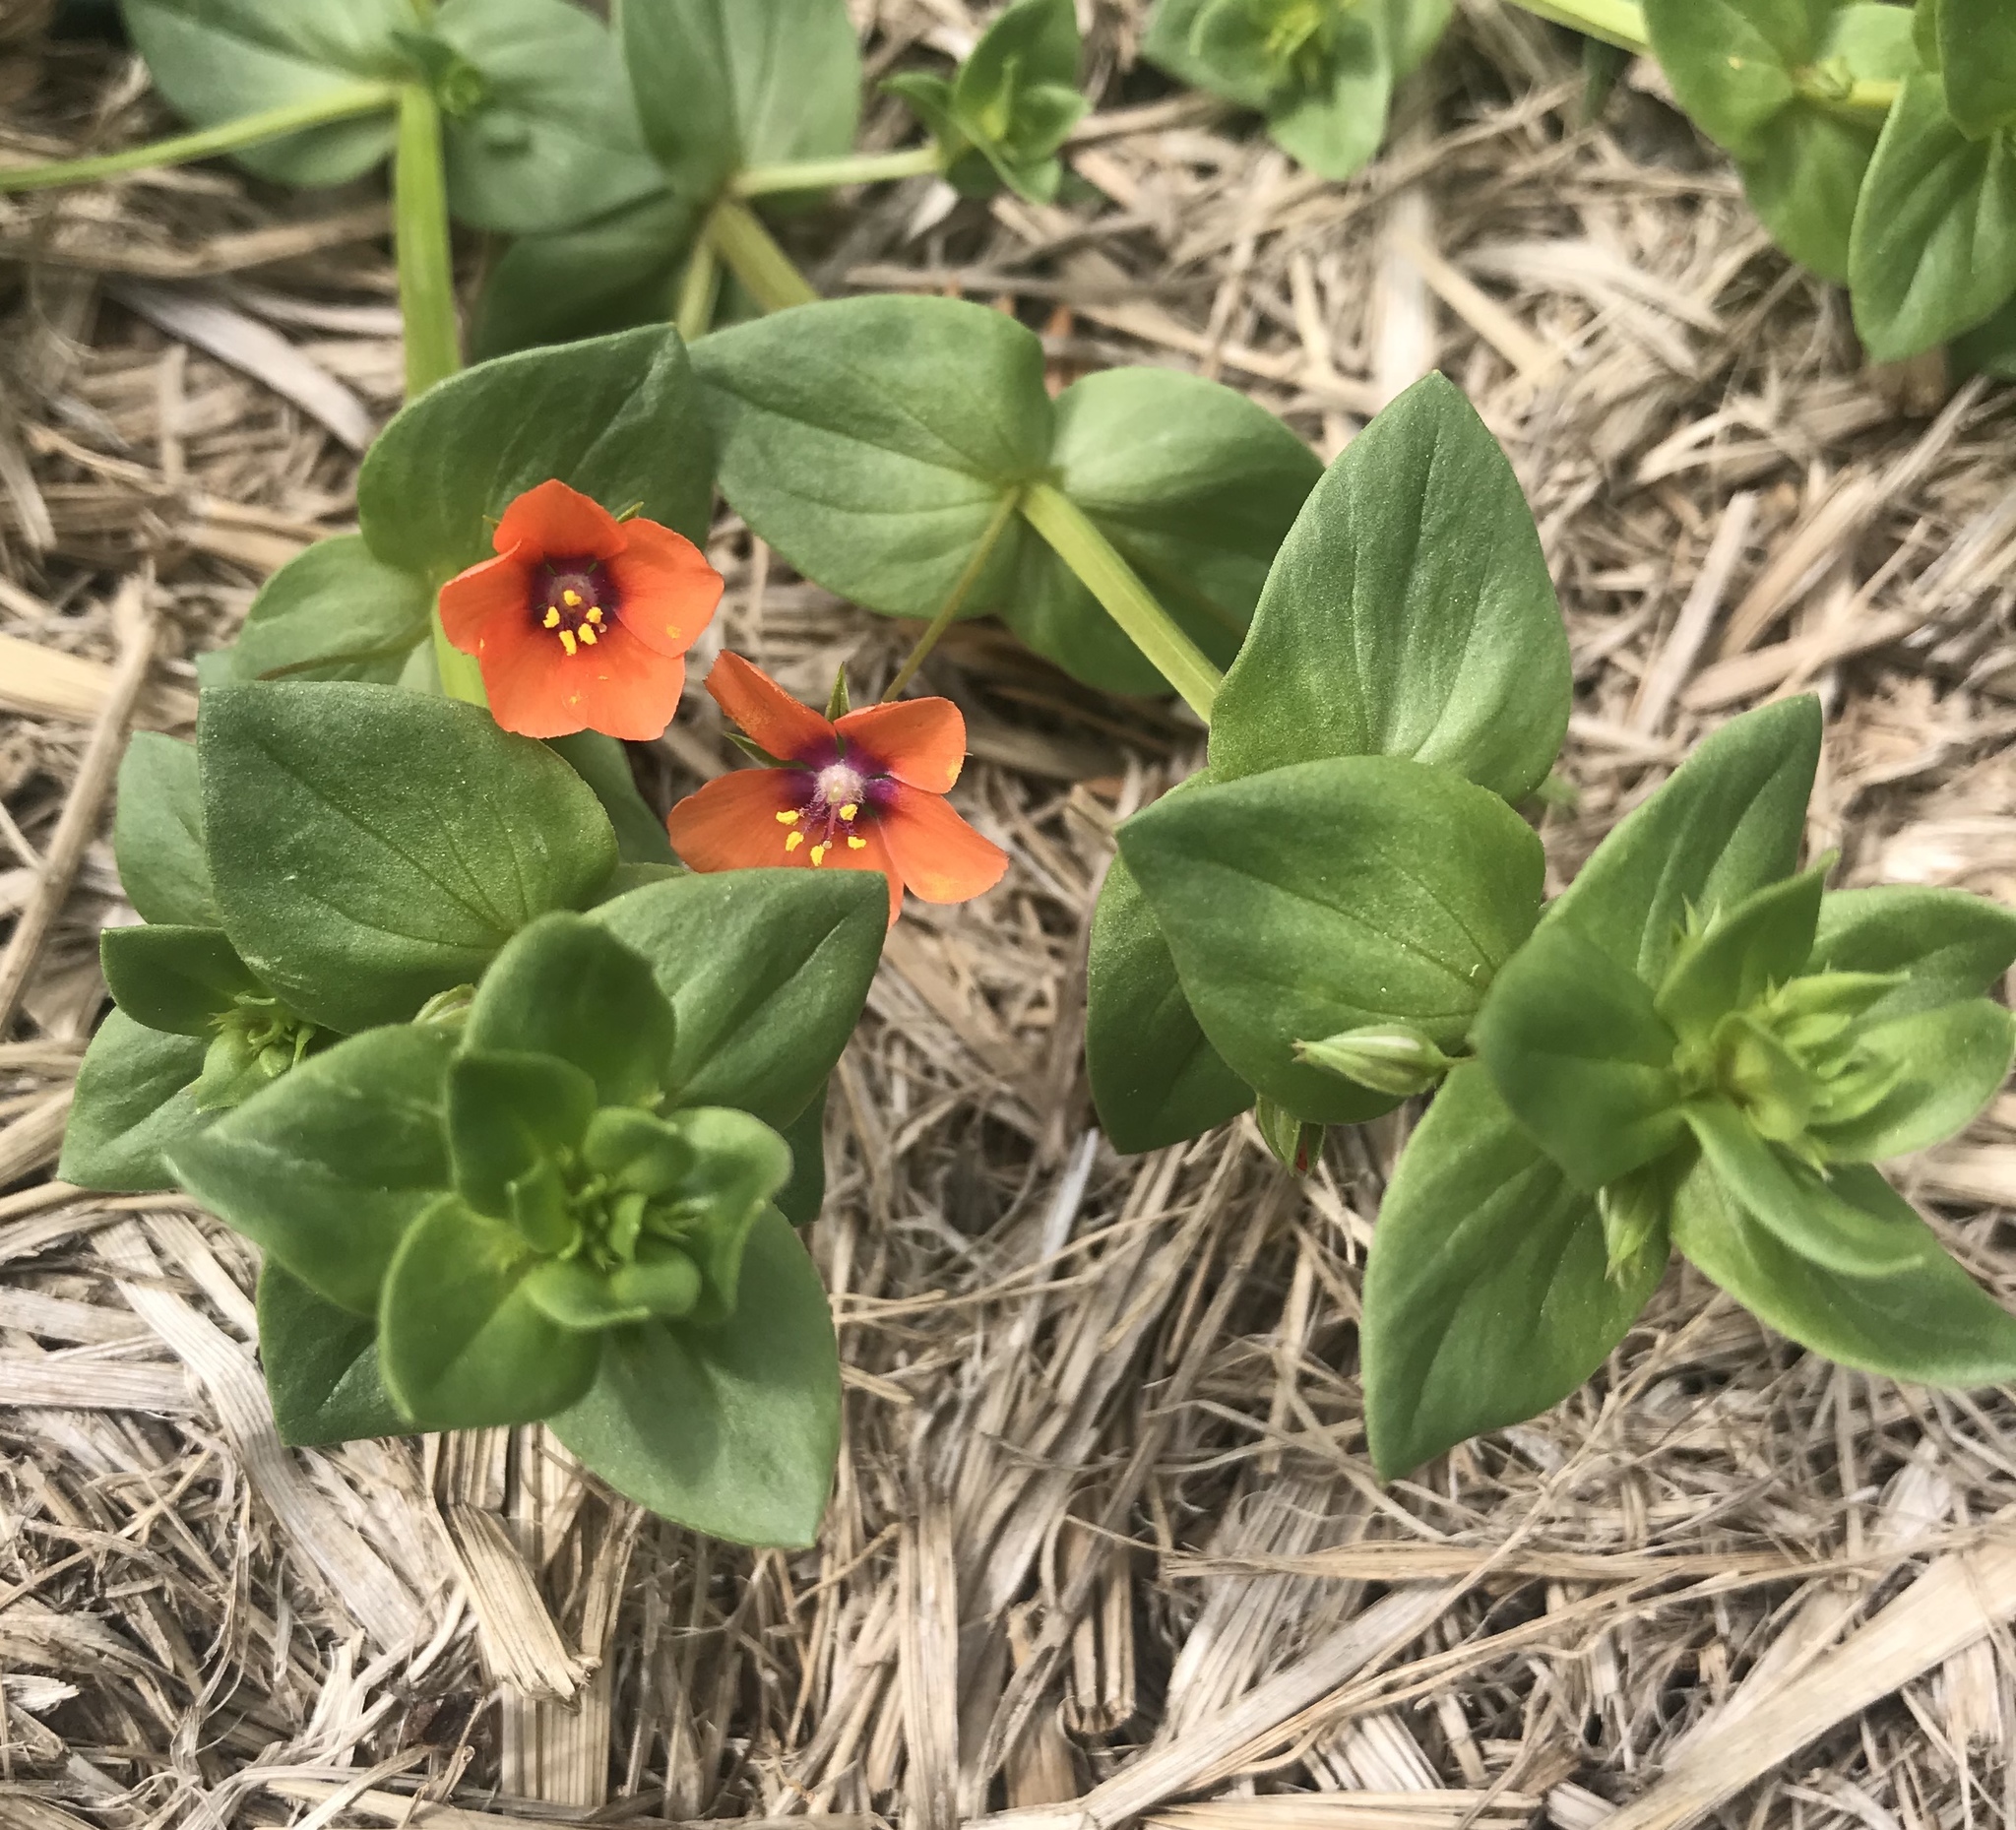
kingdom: Plantae
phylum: Tracheophyta
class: Magnoliopsida
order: Ericales
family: Primulaceae
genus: Lysimachia
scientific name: Lysimachia arvensis
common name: Scarlet pimpernel
